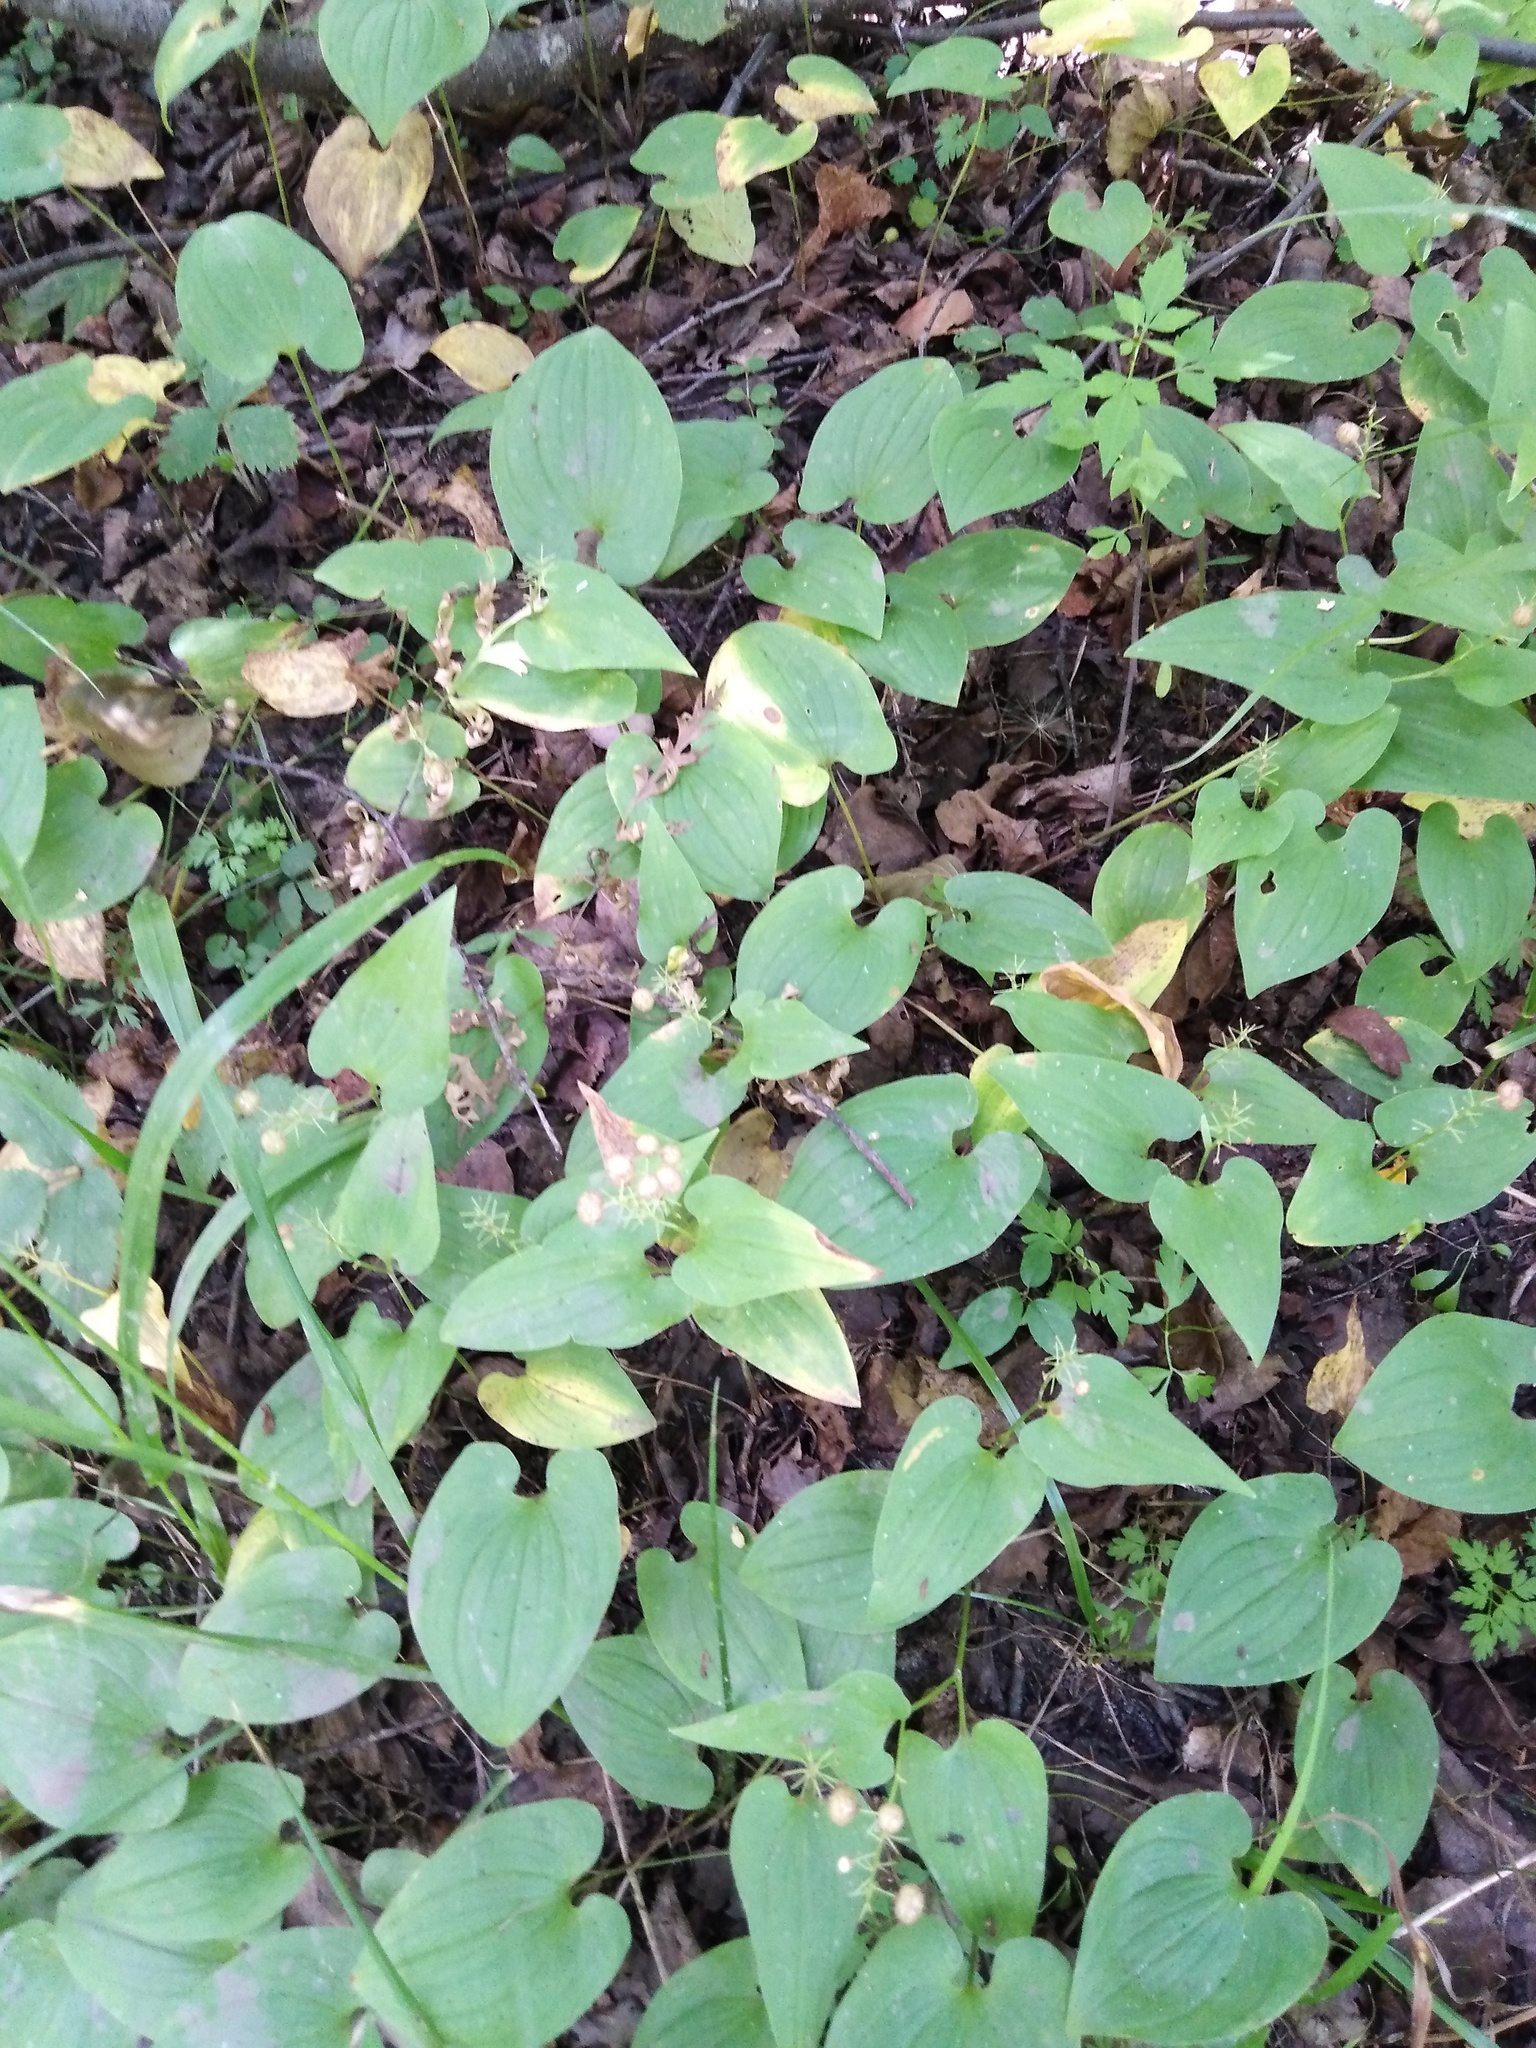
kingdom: Plantae
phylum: Tracheophyta
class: Liliopsida
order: Asparagales
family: Asparagaceae
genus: Maianthemum
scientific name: Maianthemum bifolium
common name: May lily
